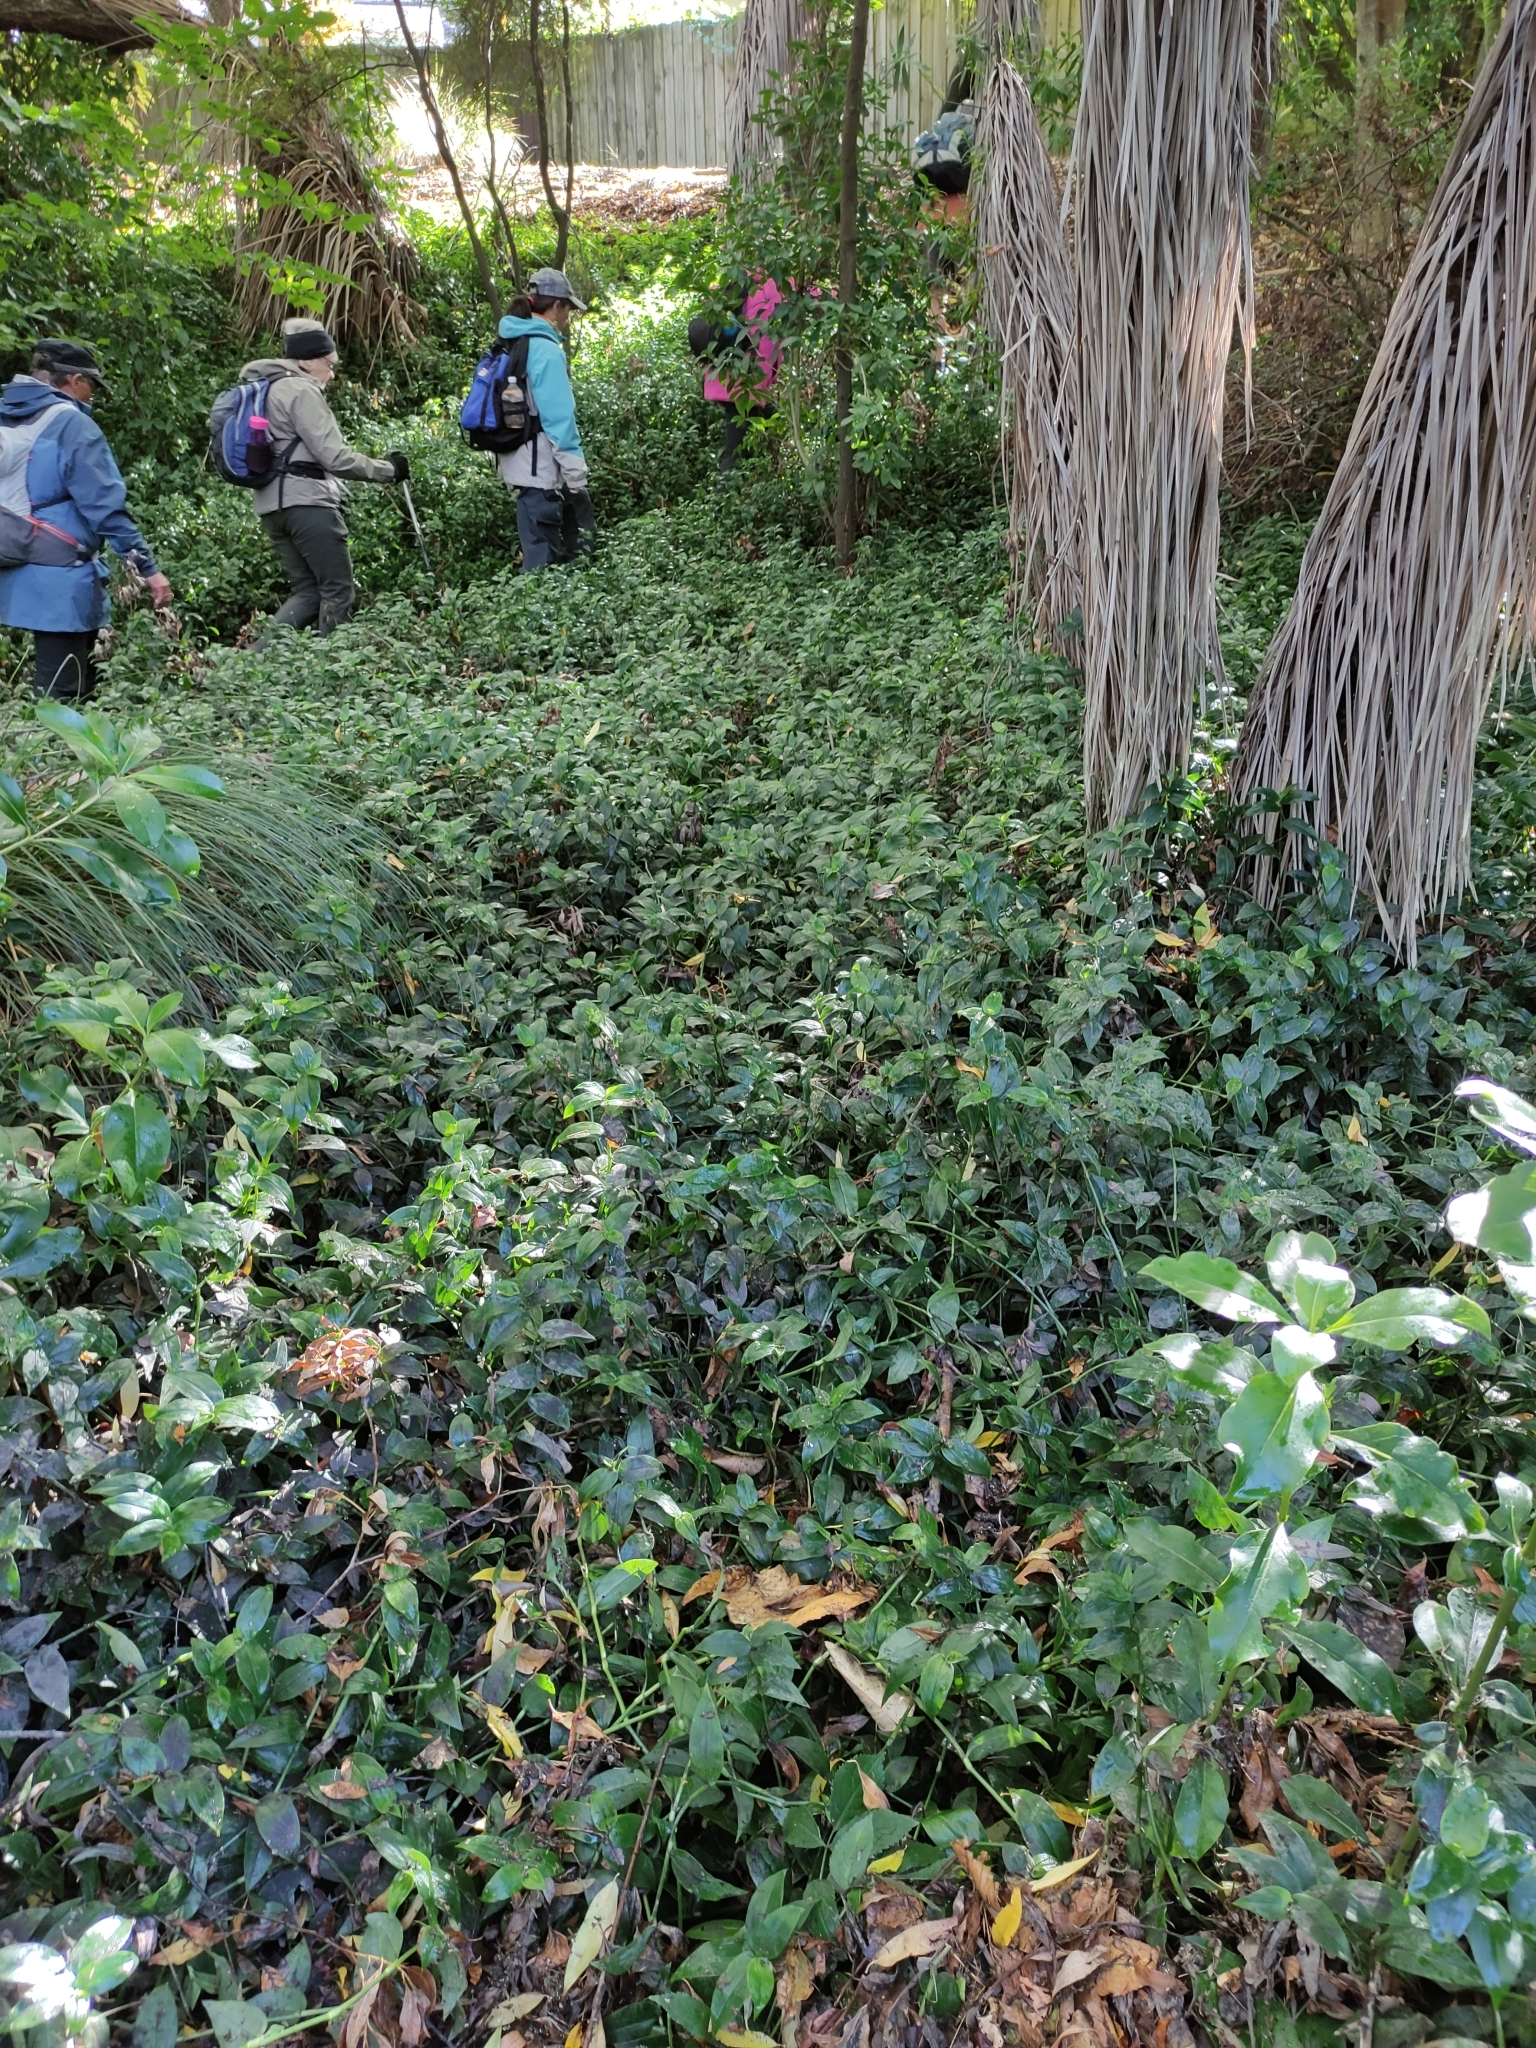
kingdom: Plantae
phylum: Tracheophyta
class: Liliopsida
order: Commelinales
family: Commelinaceae
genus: Tradescantia
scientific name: Tradescantia fluminensis
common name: Wandering-jew
